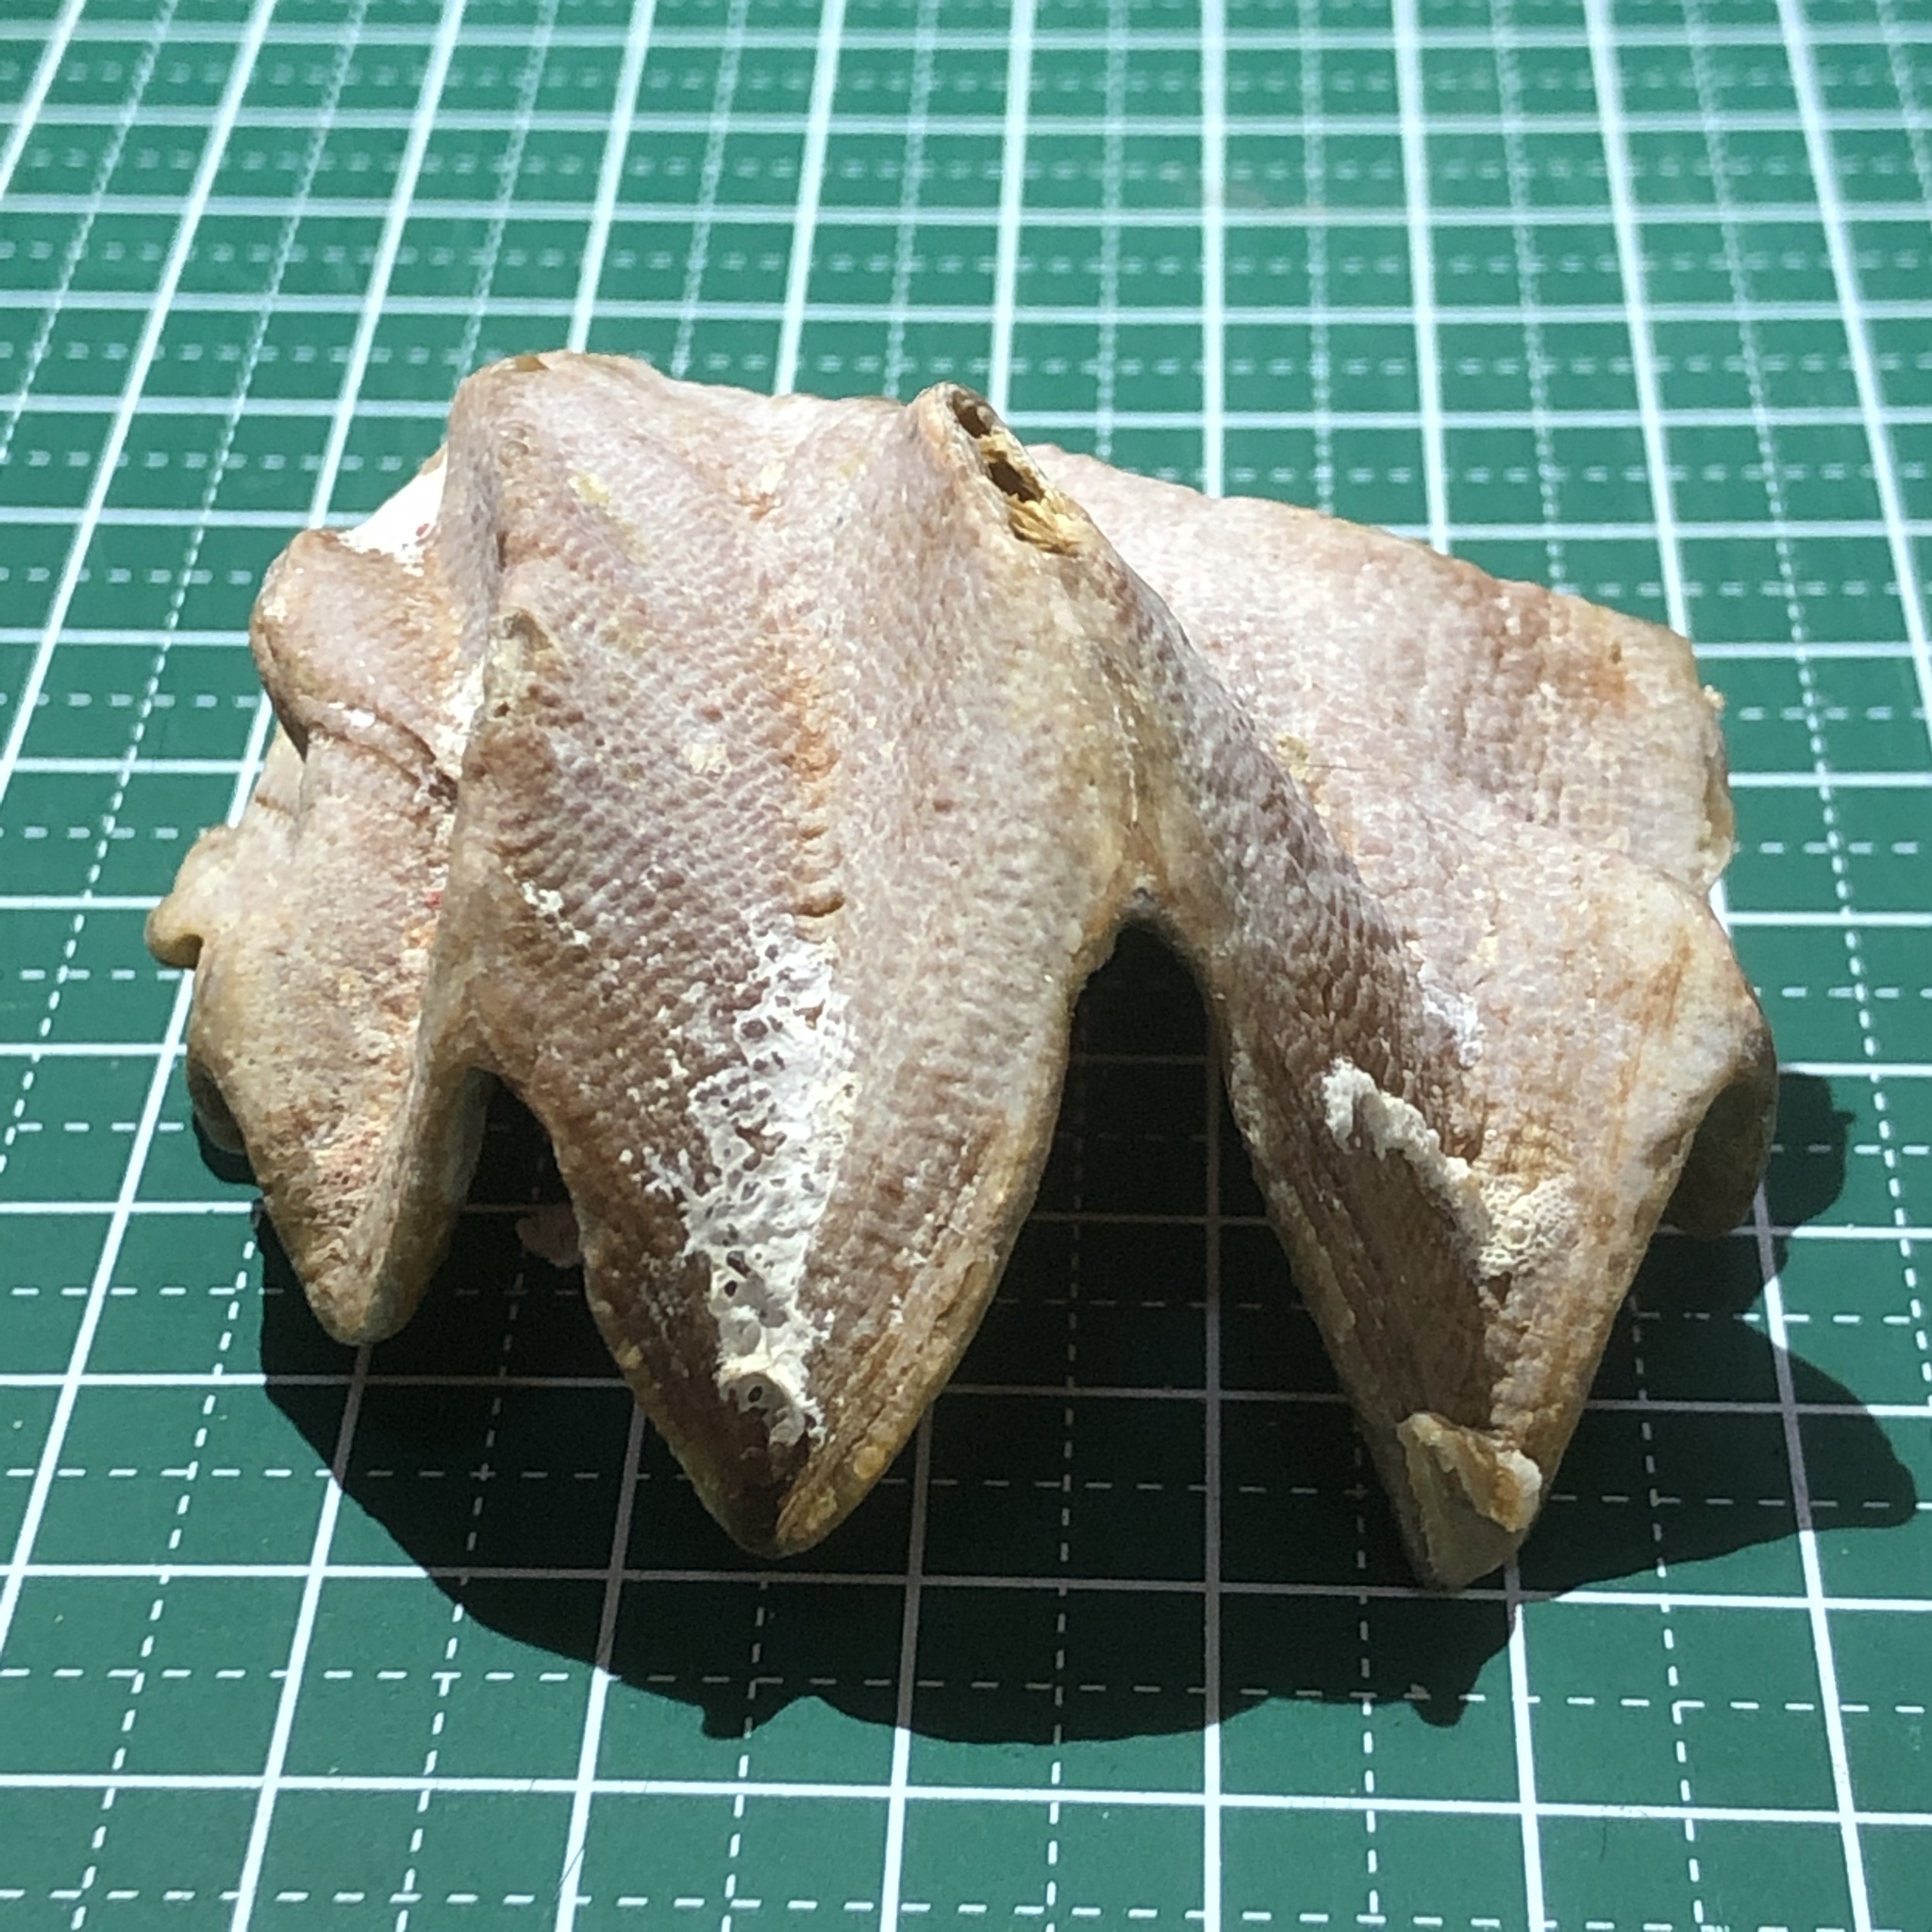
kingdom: Animalia
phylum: Mollusca
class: Bivalvia
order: Ostreida
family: Ostreidae
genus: Lopha
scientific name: Lopha cristagalli
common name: Cock's-comb oyster
